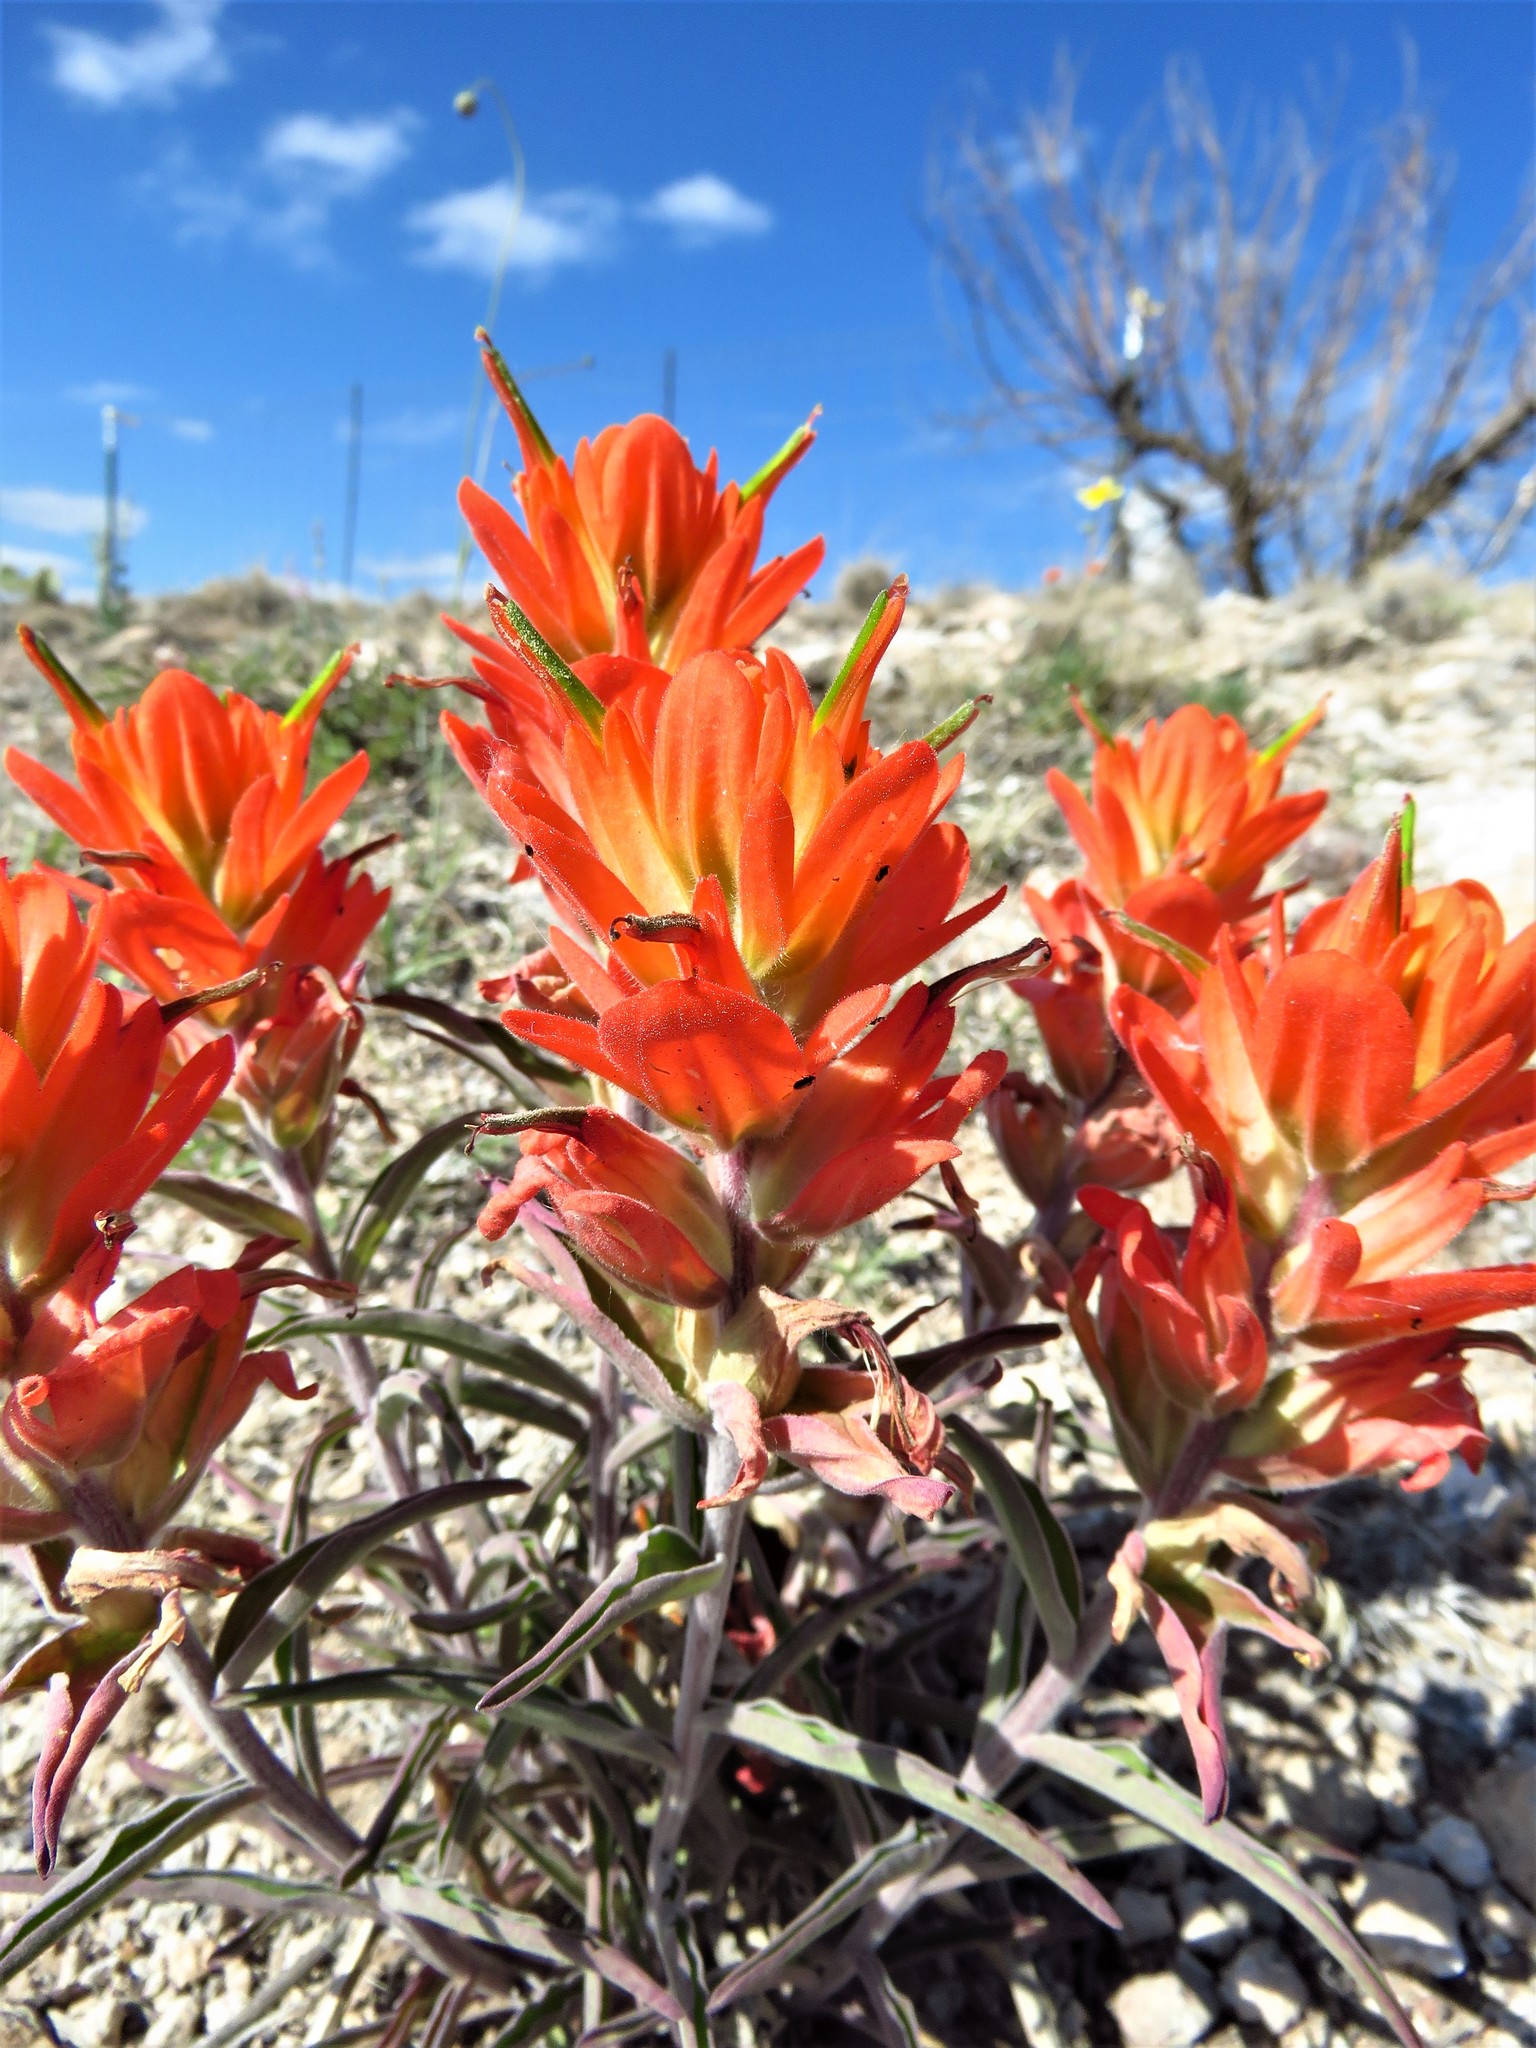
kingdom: Plantae
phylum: Tracheophyta
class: Magnoliopsida
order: Lamiales
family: Orobanchaceae
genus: Castilleja
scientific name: Castilleja integra
